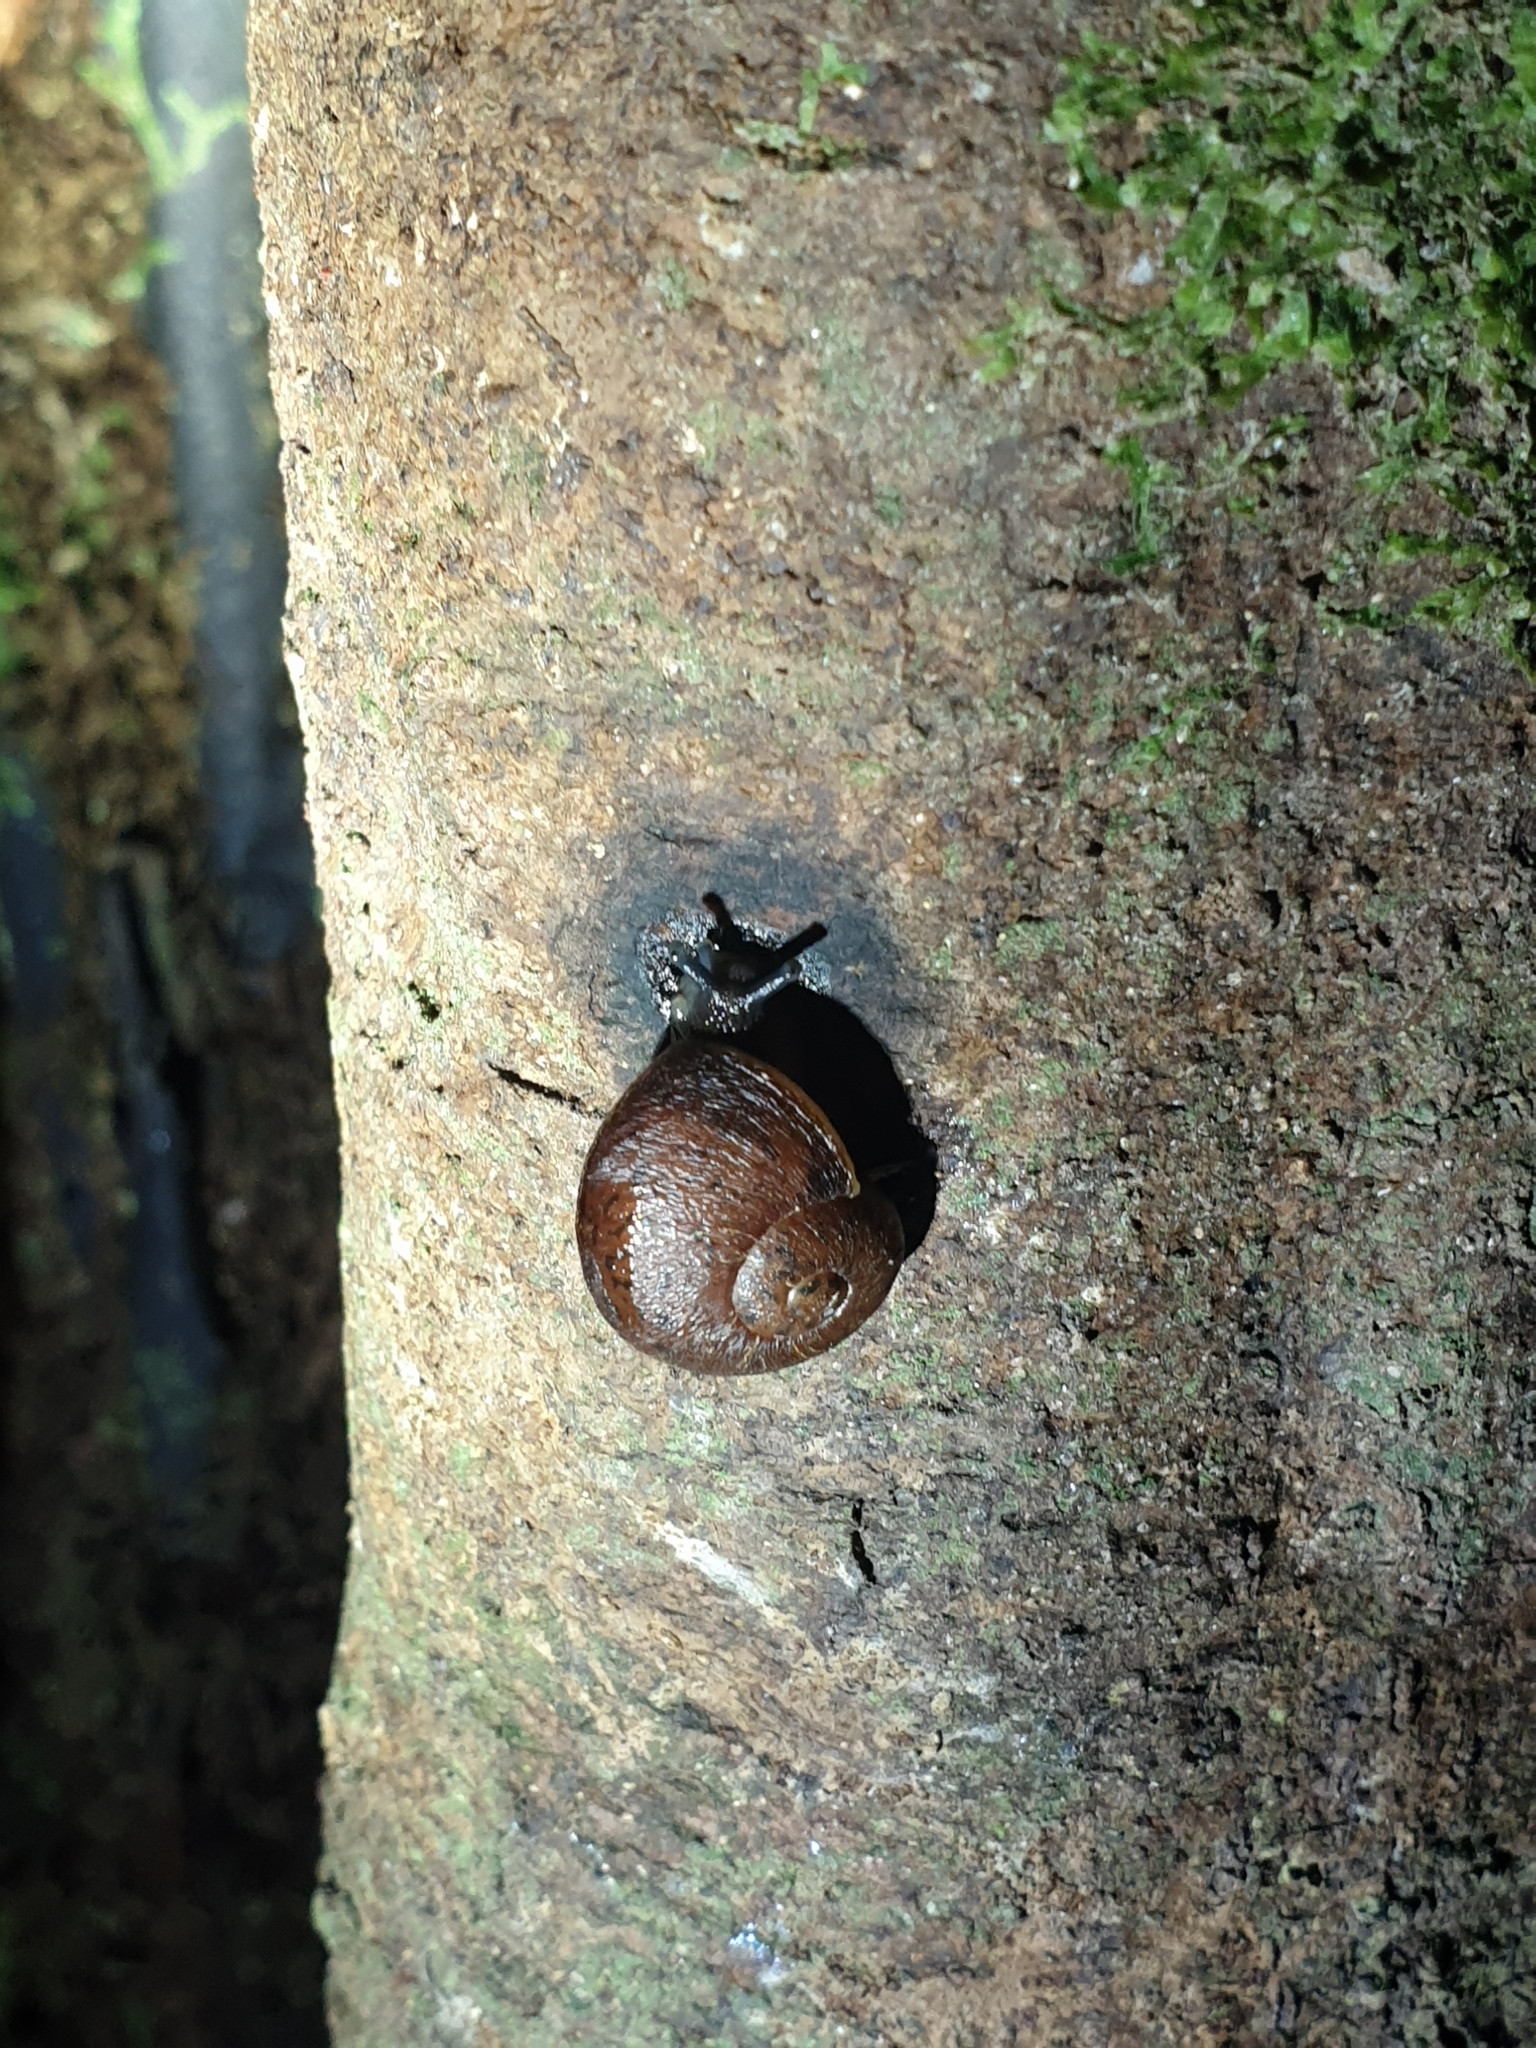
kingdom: Animalia
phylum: Mollusca
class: Gastropoda
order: Stylommatophora
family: Rhytididae
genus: Rhytida
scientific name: Rhytida greenwoodi
